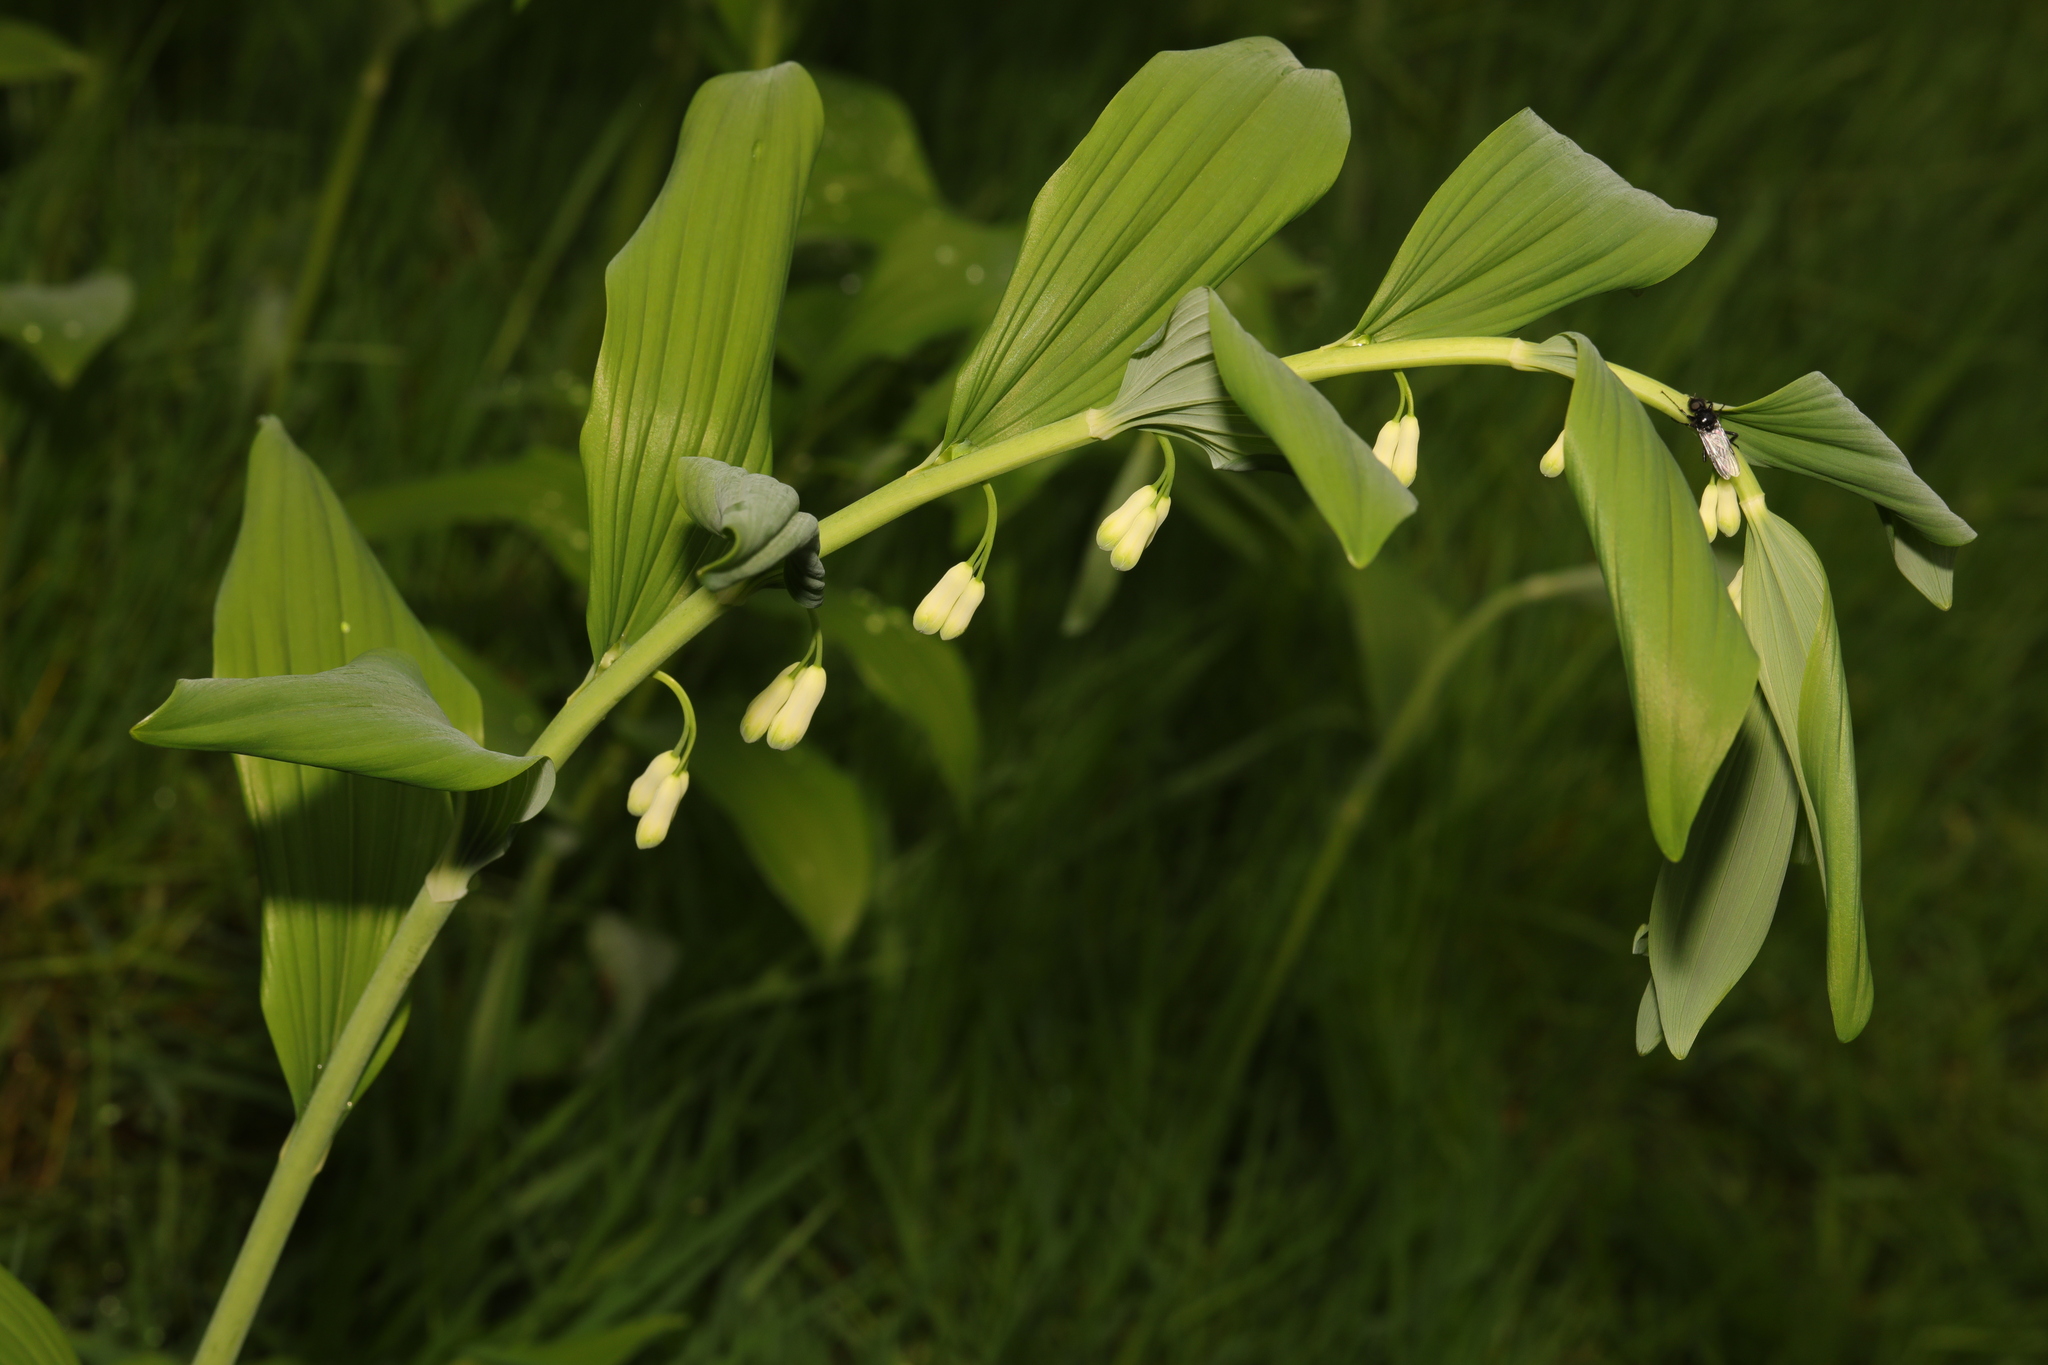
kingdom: Plantae
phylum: Tracheophyta
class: Liliopsida
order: Asparagales
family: Asparagaceae
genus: Polygonatum
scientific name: Polygonatum multiflorum
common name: Solomon's-seal
